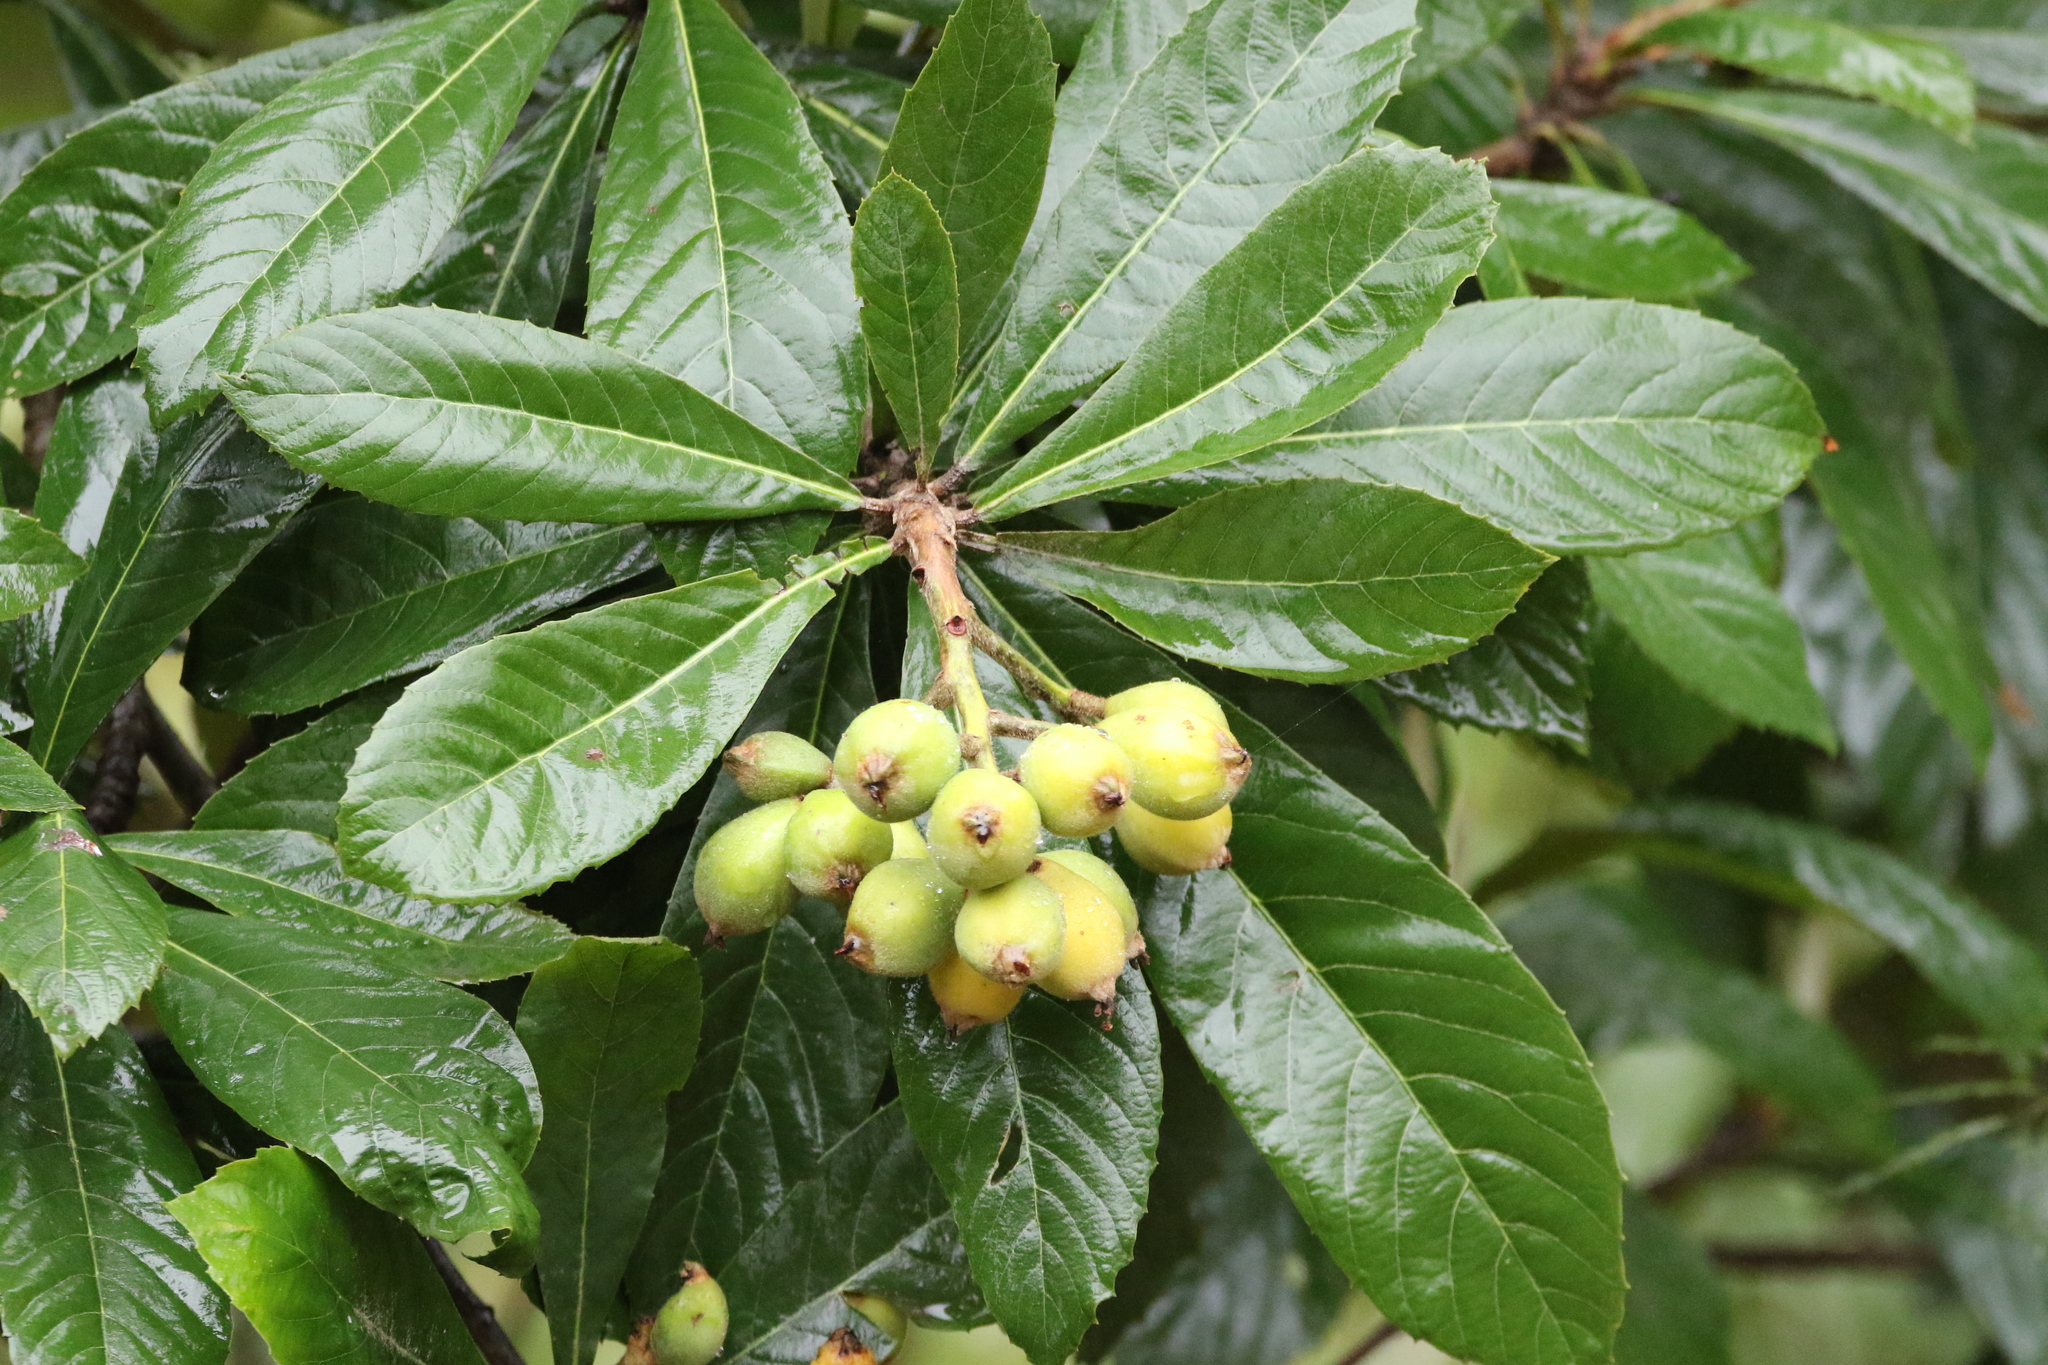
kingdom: Plantae
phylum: Tracheophyta
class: Magnoliopsida
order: Rosales
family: Rosaceae
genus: Rhaphiolepis
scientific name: Rhaphiolepis bibas
